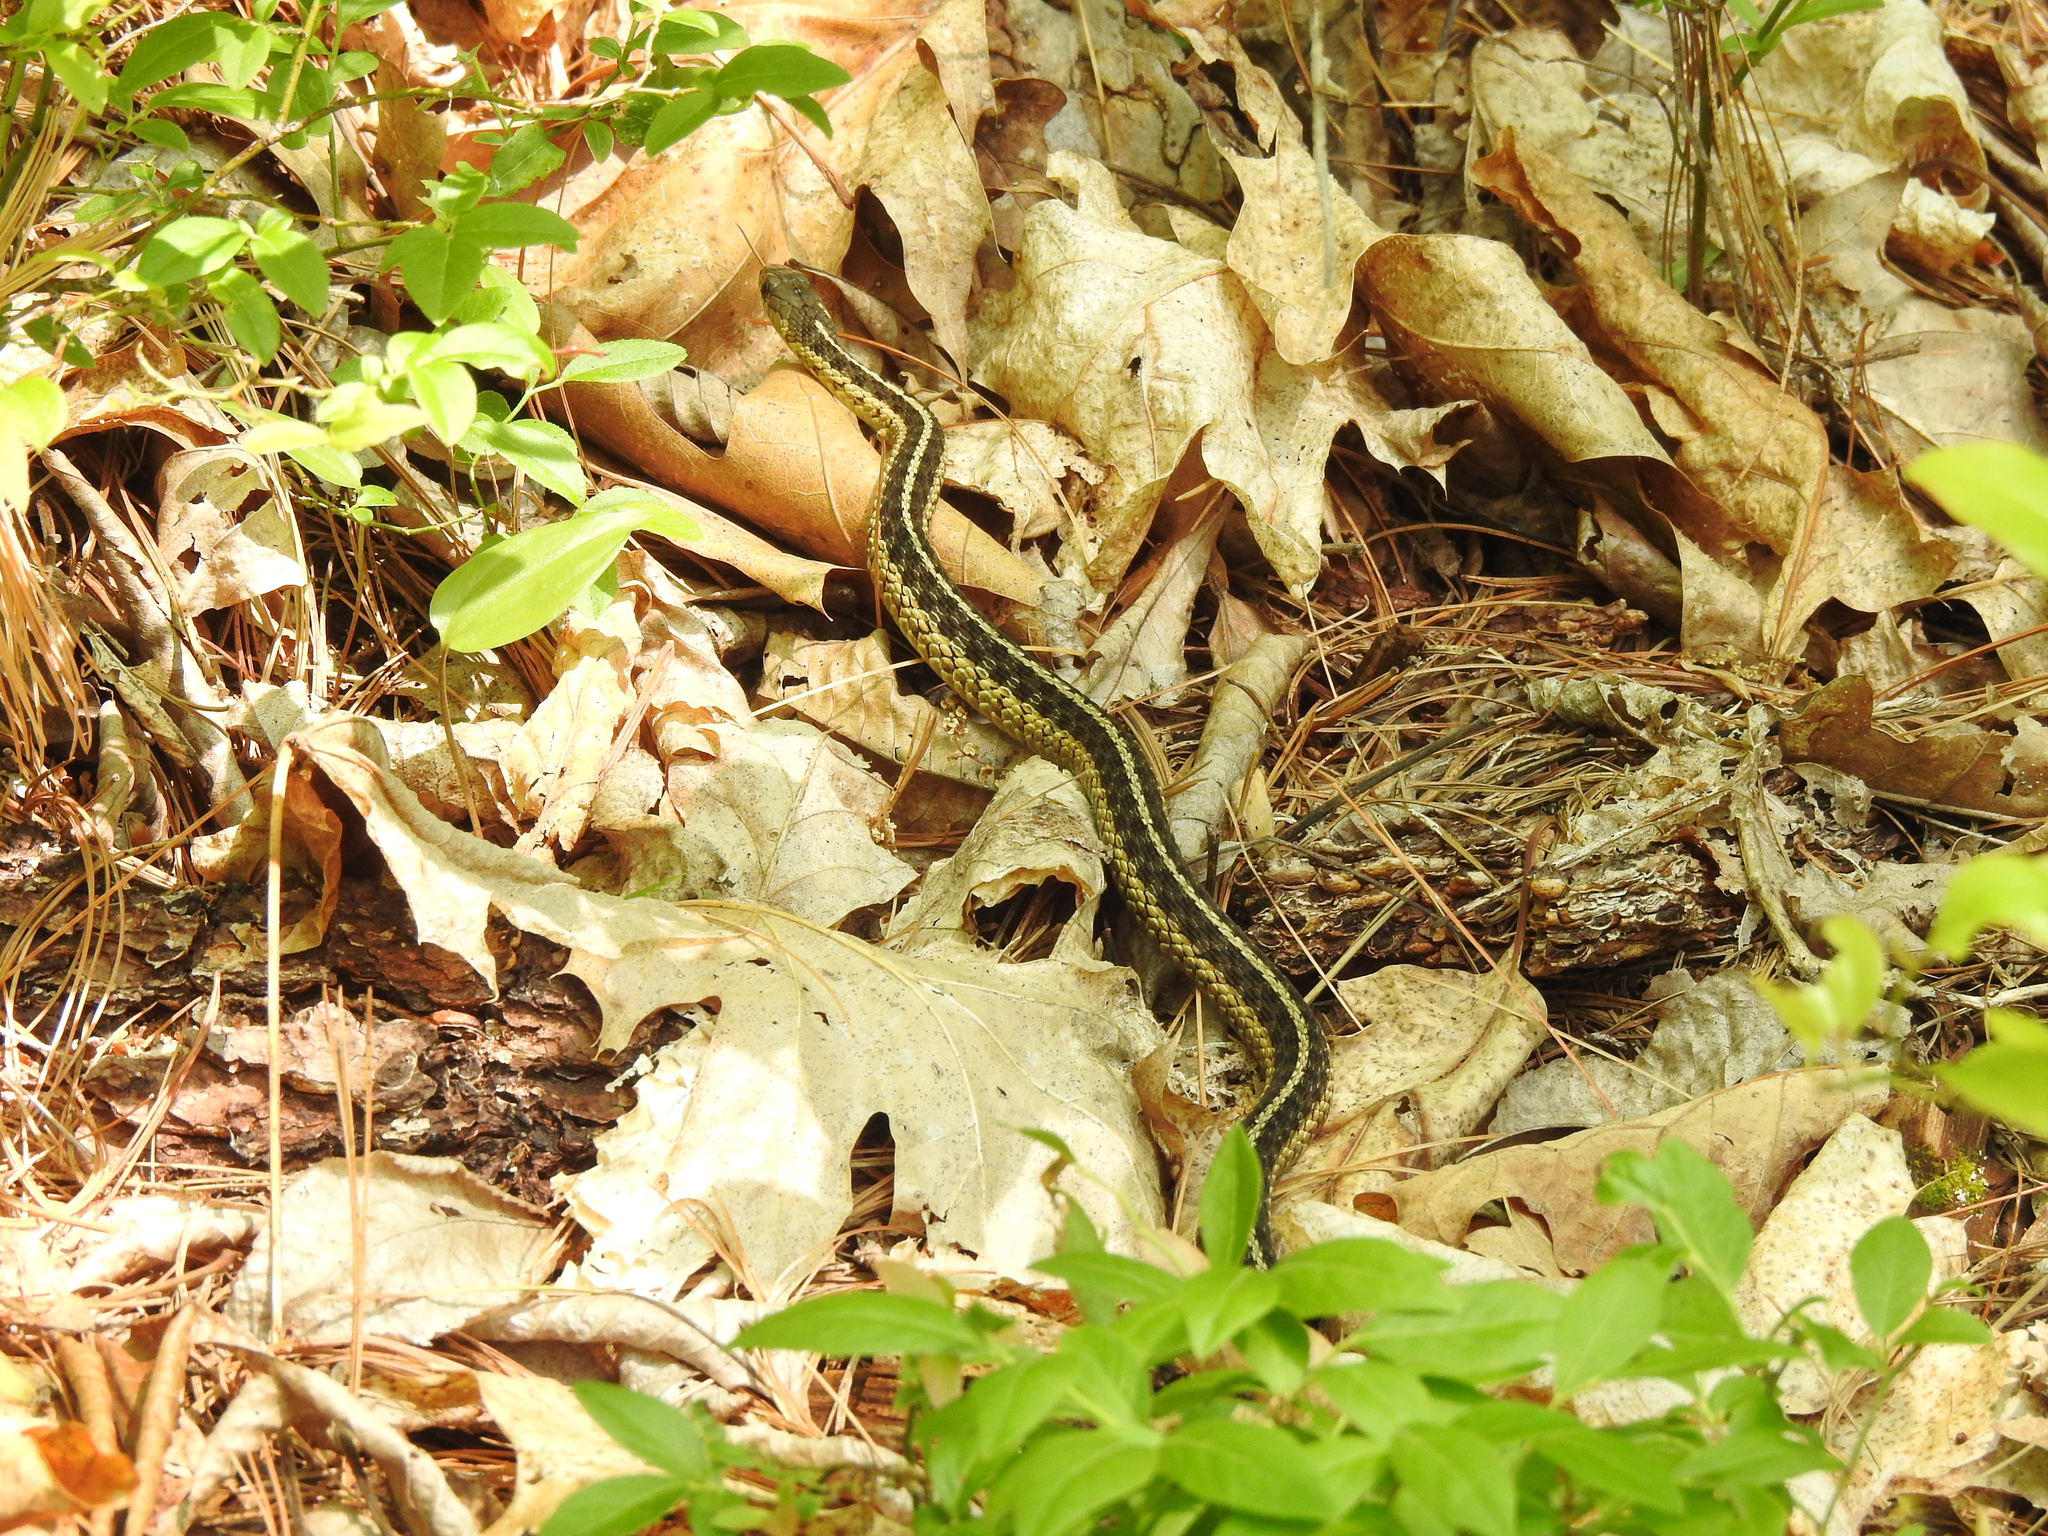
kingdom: Animalia
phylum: Chordata
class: Squamata
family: Colubridae
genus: Thamnophis
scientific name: Thamnophis sirtalis
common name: Common garter snake
